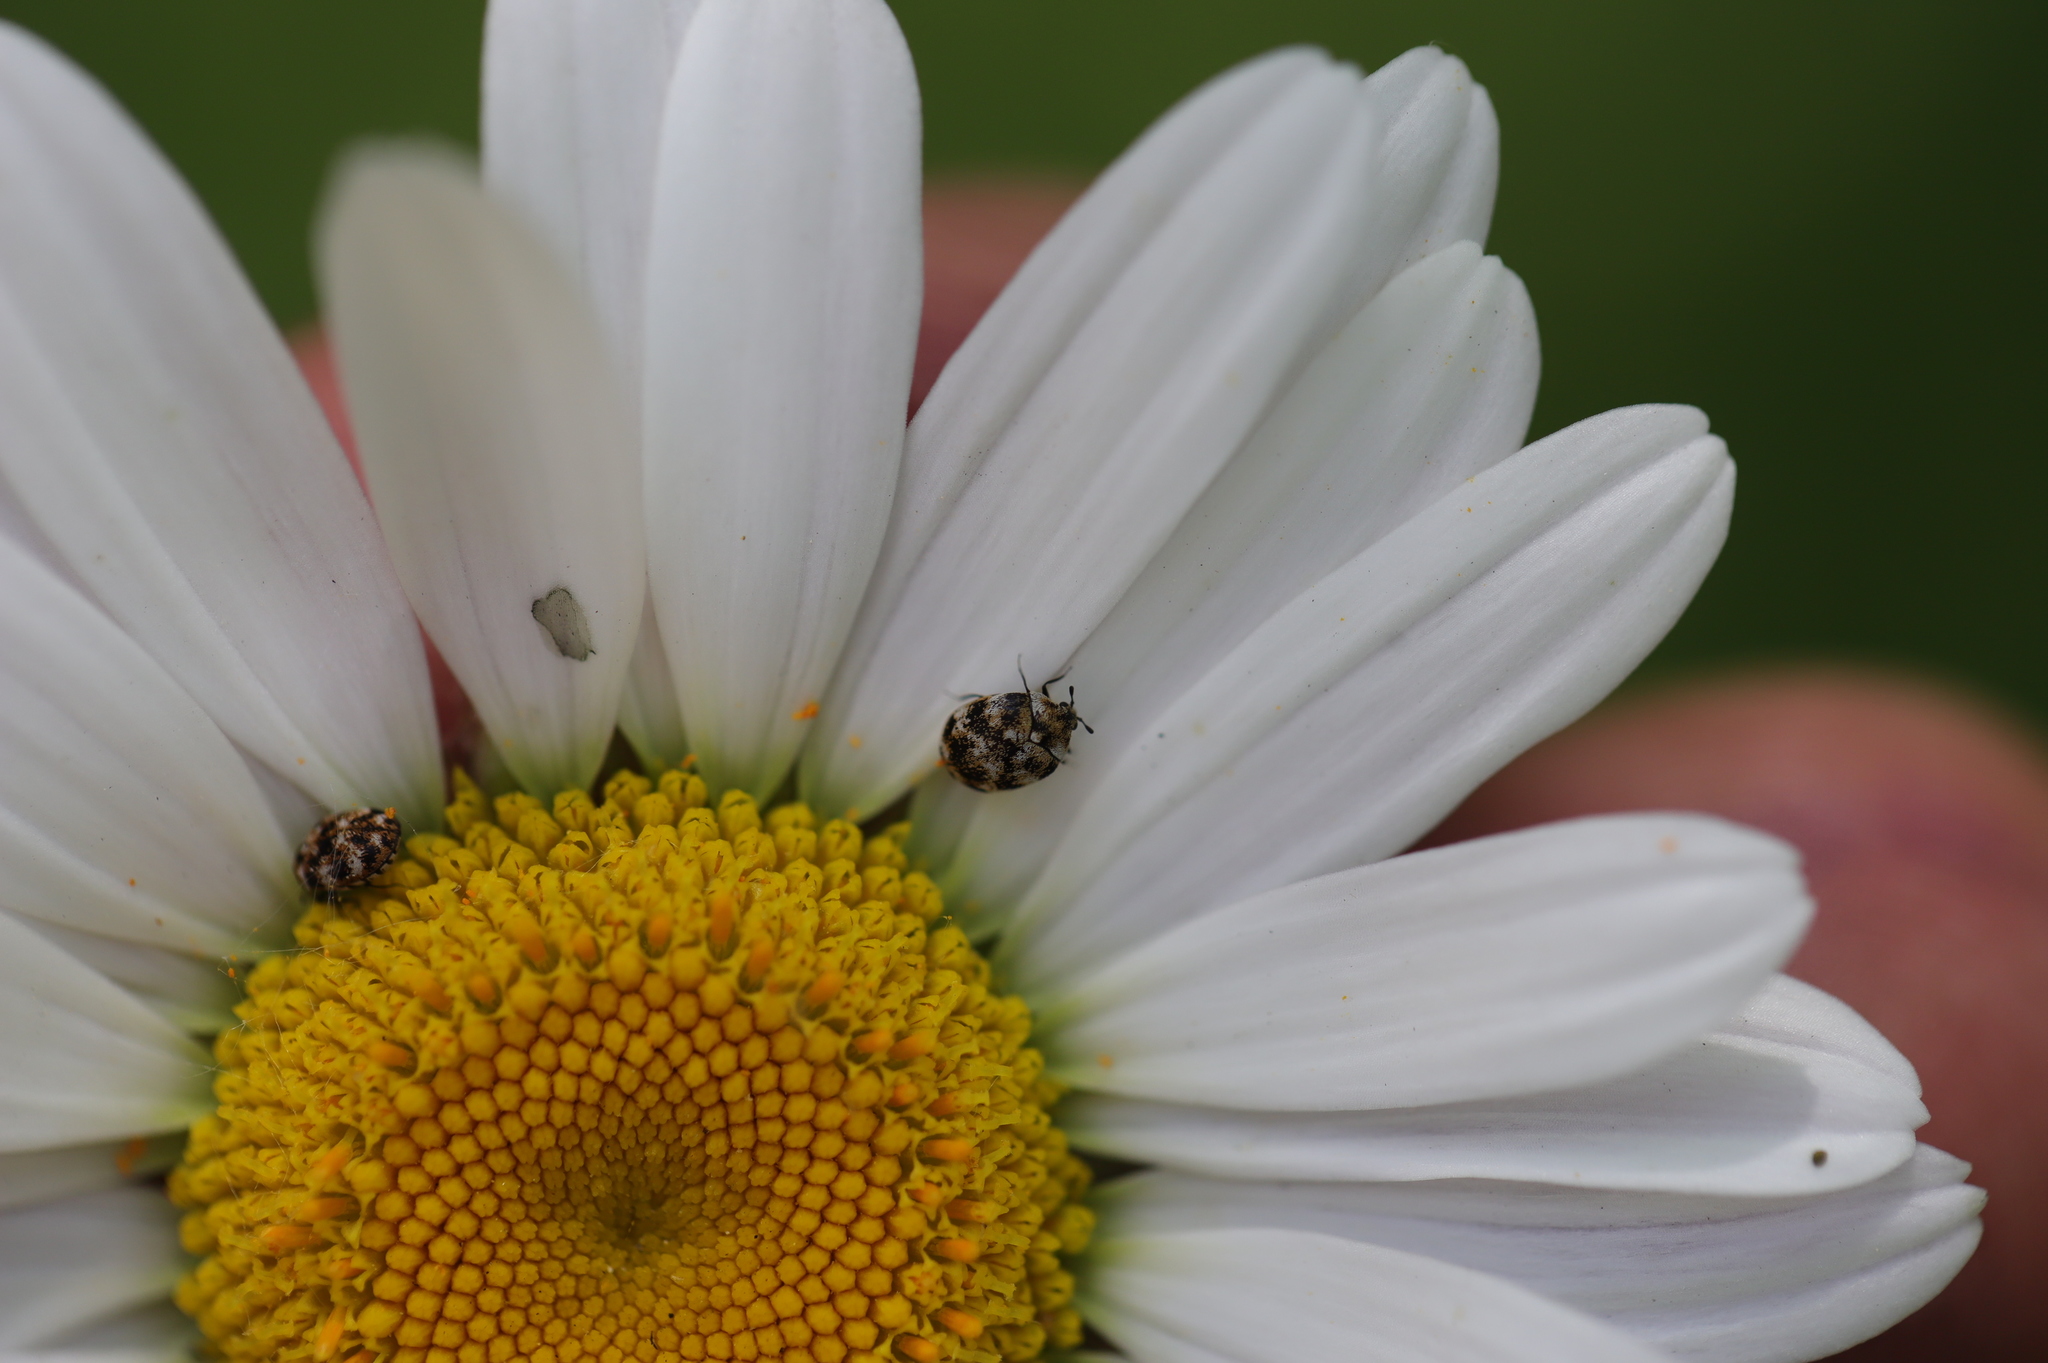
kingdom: Animalia
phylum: Arthropoda
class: Insecta
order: Coleoptera
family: Dermestidae
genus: Anthrenus
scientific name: Anthrenus verbasci
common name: Varied carpet beetle
